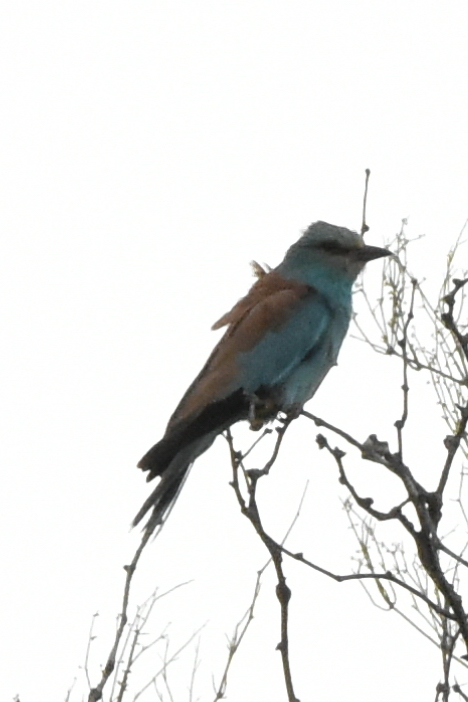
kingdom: Animalia
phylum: Chordata
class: Aves
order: Coraciiformes
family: Coraciidae
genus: Coracias
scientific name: Coracias garrulus
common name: European roller
